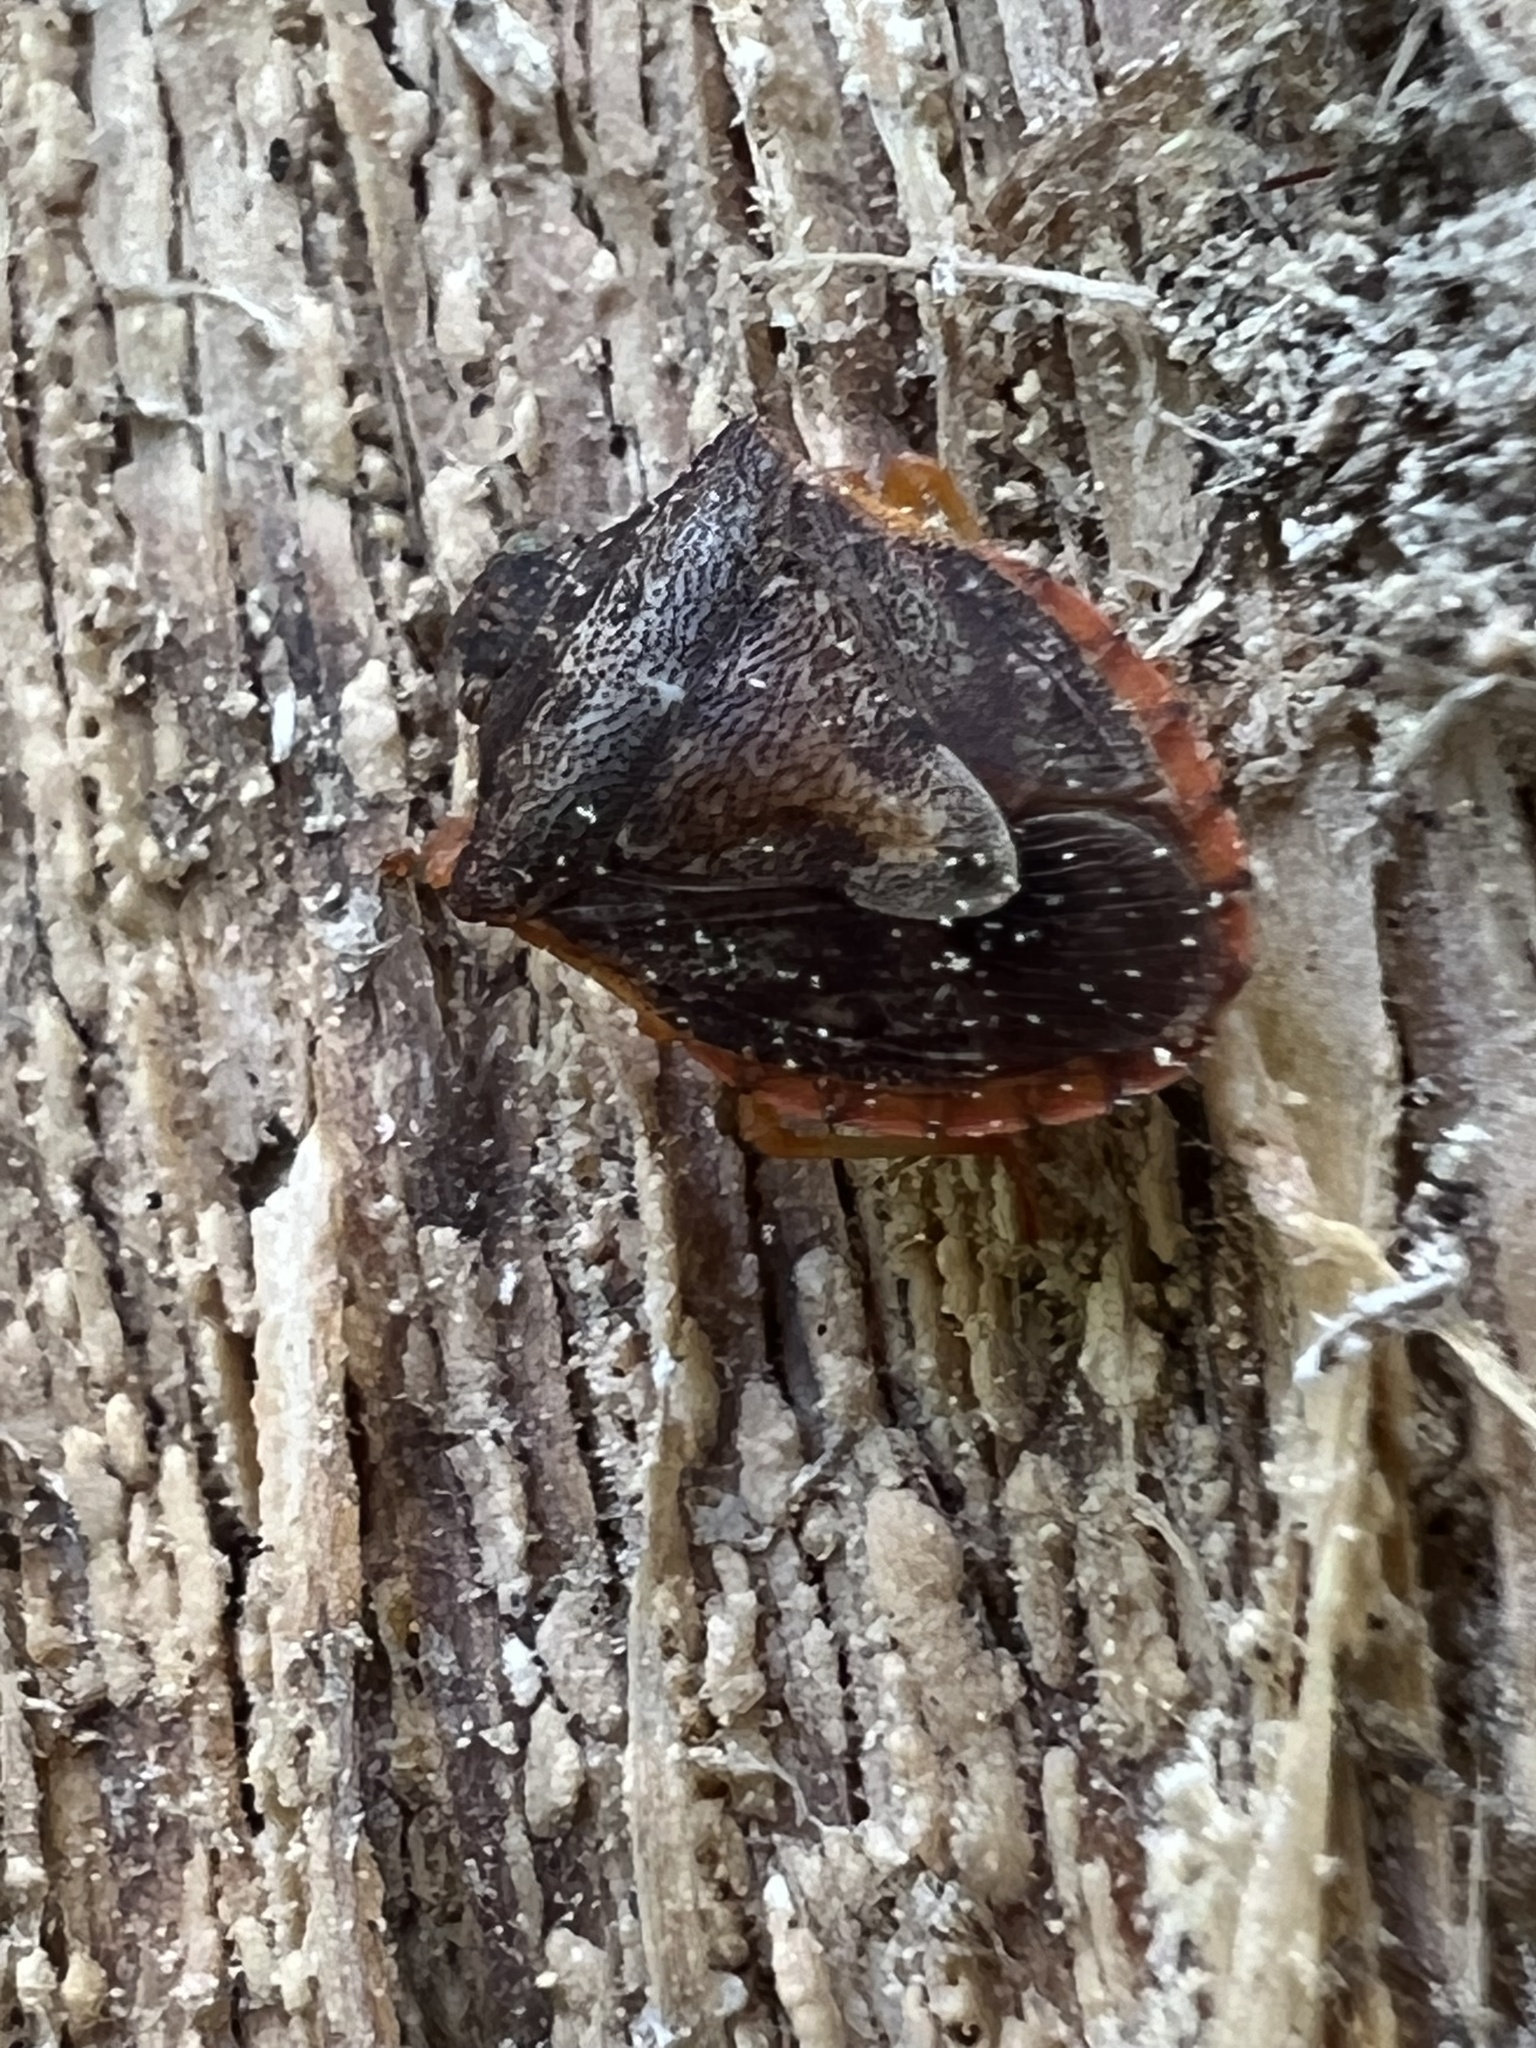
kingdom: Animalia
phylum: Arthropoda
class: Insecta
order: Hemiptera
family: Pentatomidae
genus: Dendrocoris
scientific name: Dendrocoris humeralis
